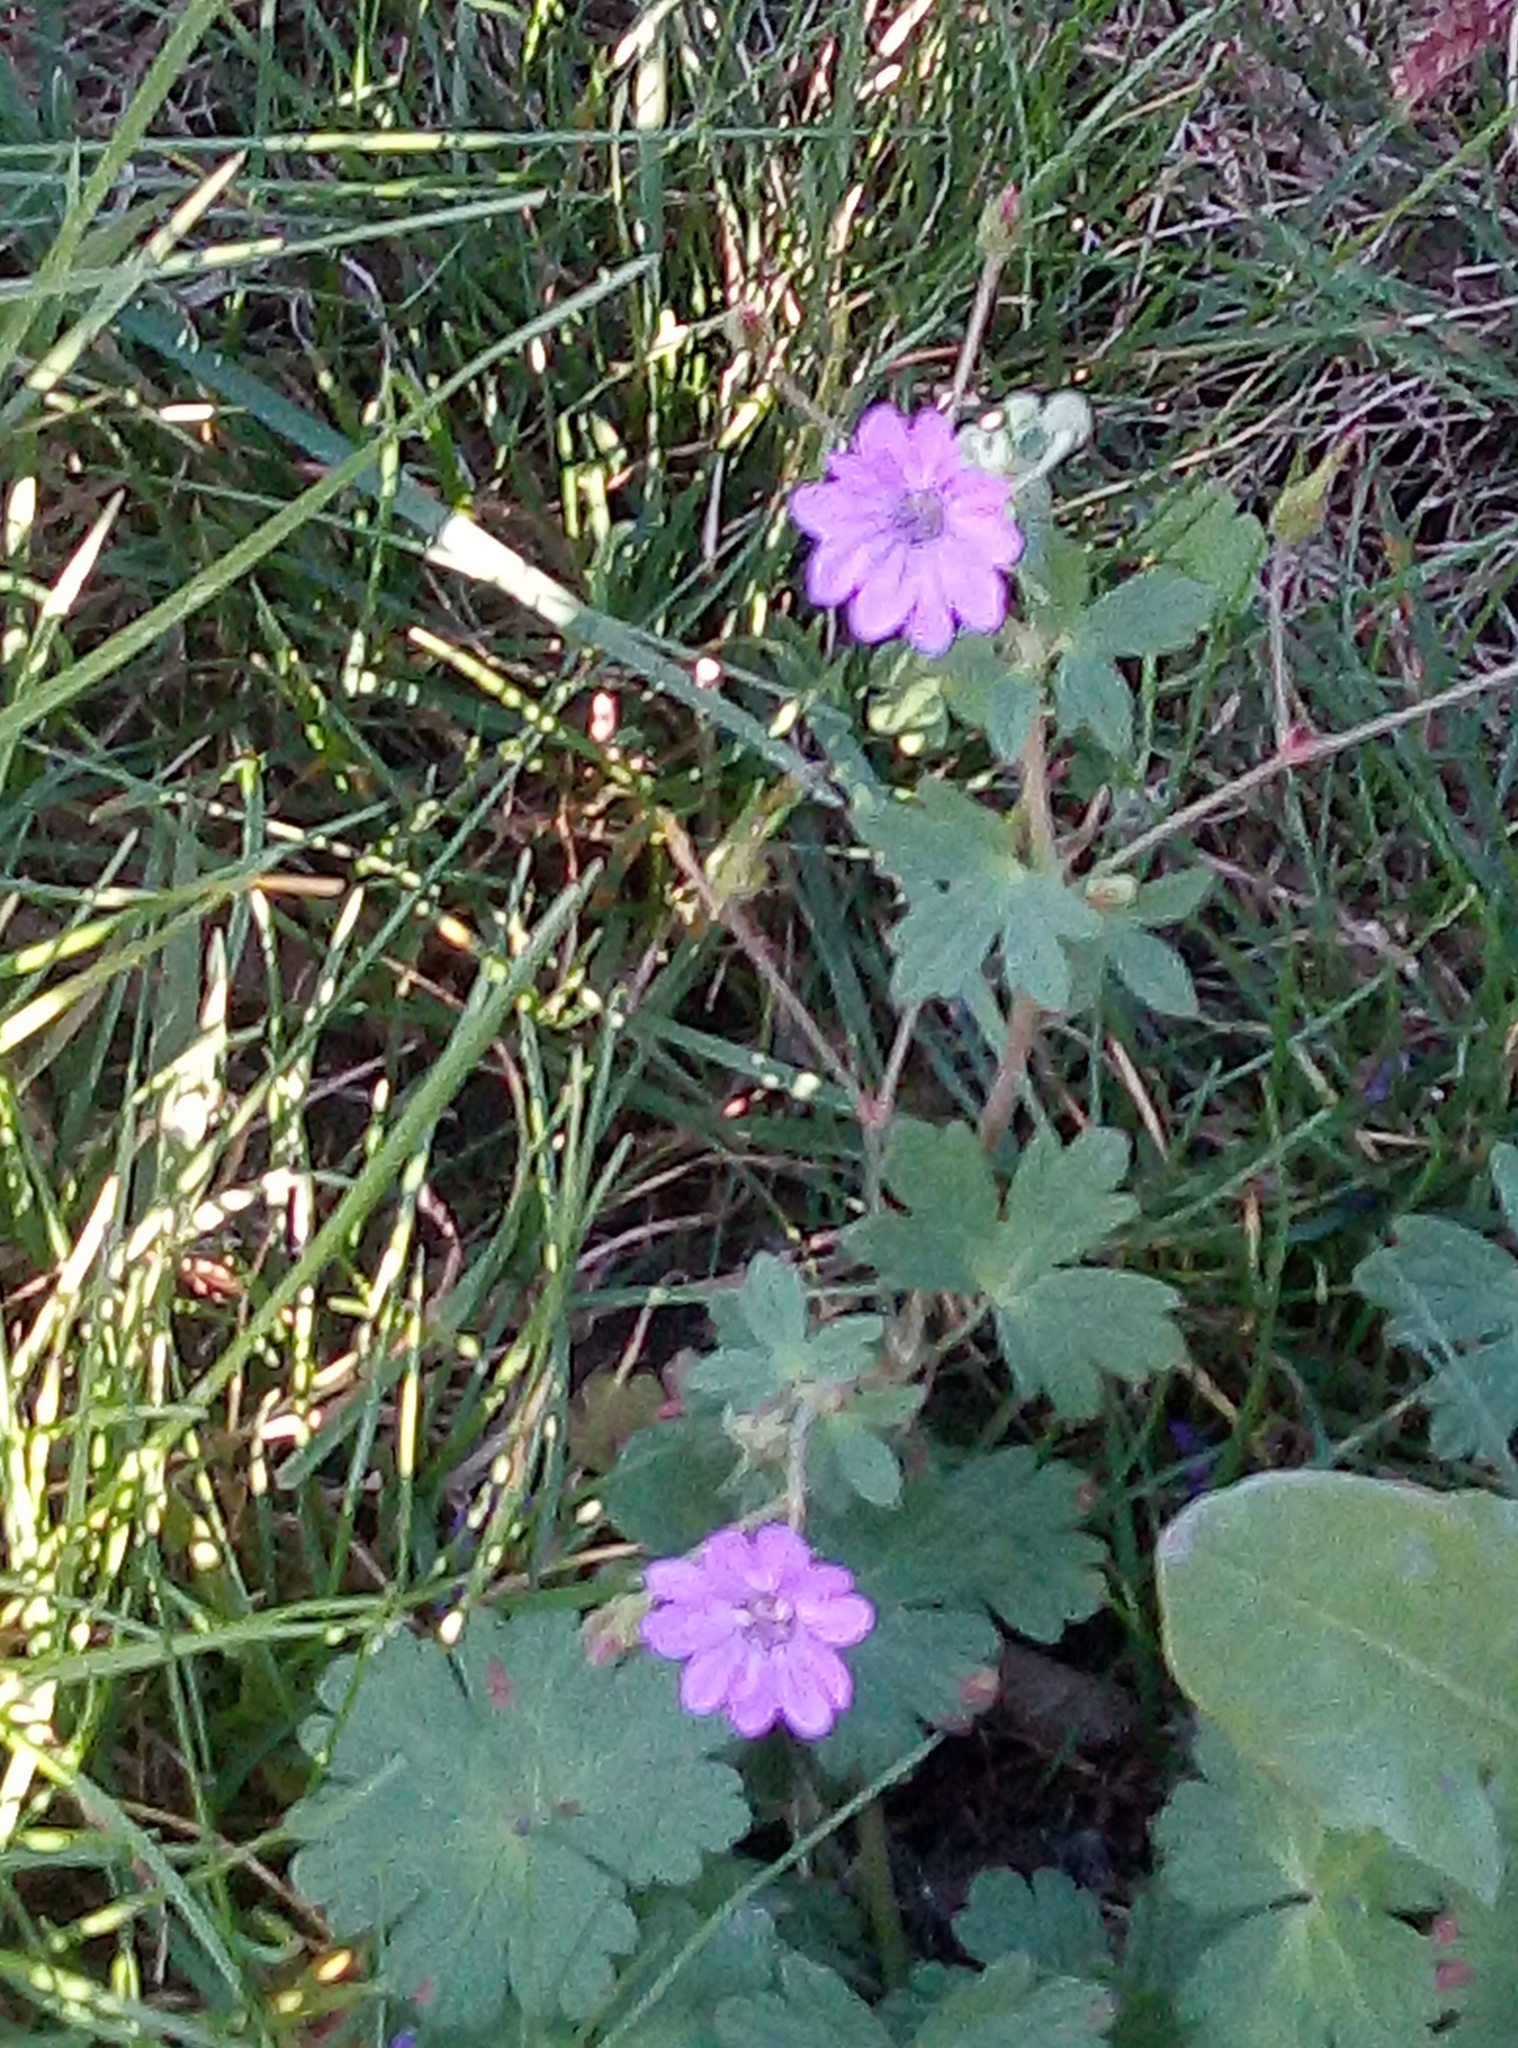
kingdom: Plantae
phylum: Tracheophyta
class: Magnoliopsida
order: Geraniales
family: Geraniaceae
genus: Geranium
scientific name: Geranium pyrenaicum
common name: Hedgerow crane's-bill
